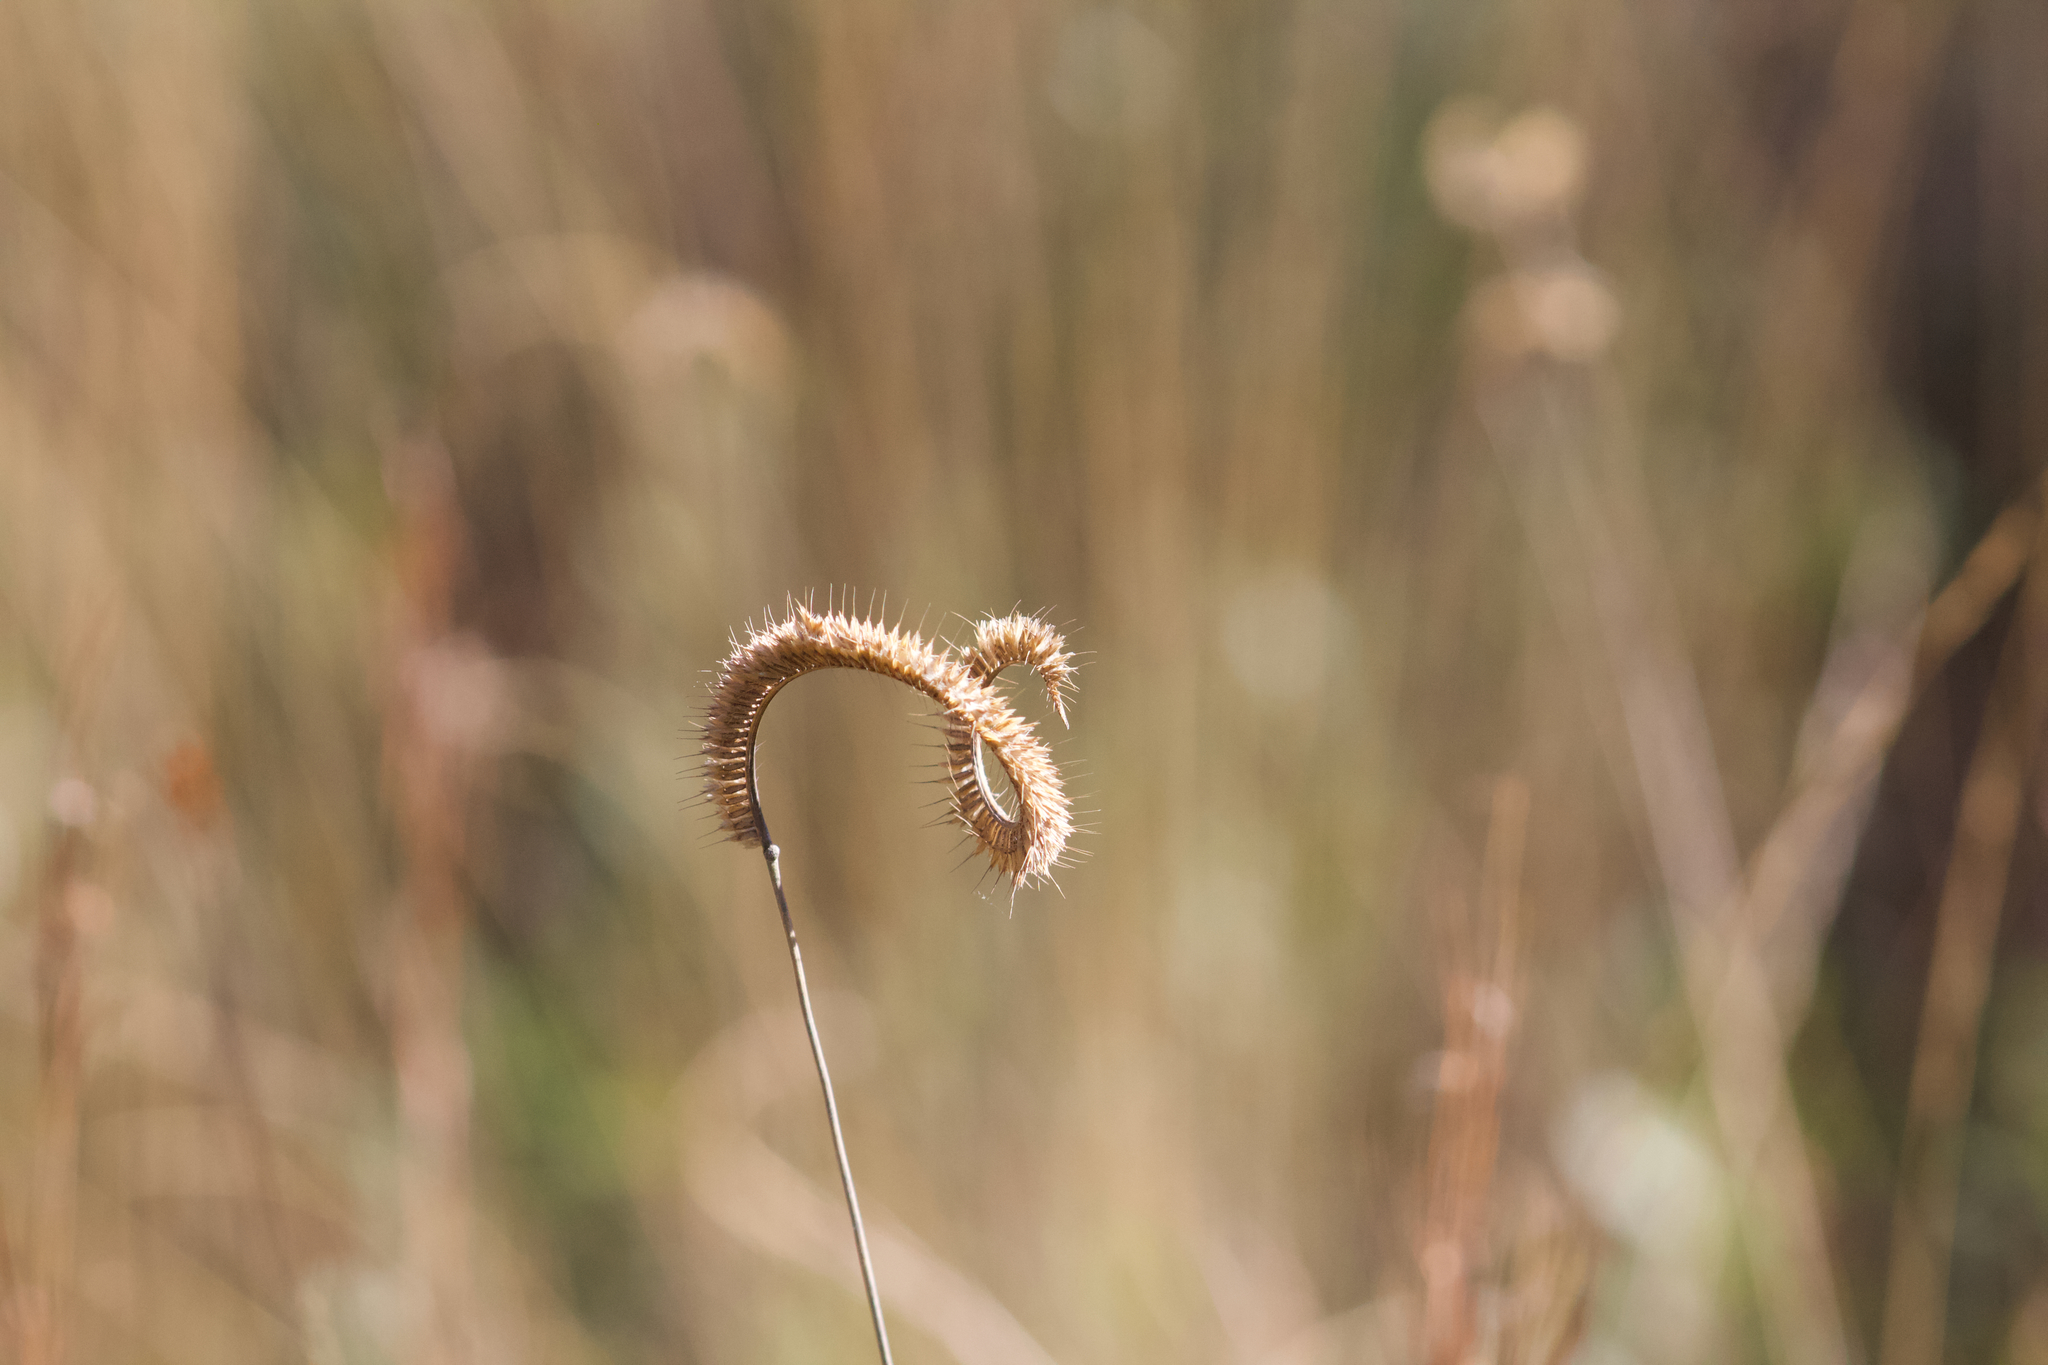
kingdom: Plantae
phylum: Tracheophyta
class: Liliopsida
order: Poales
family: Poaceae
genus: Ctenium
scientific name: Ctenium aromaticum
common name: Toothache grass
